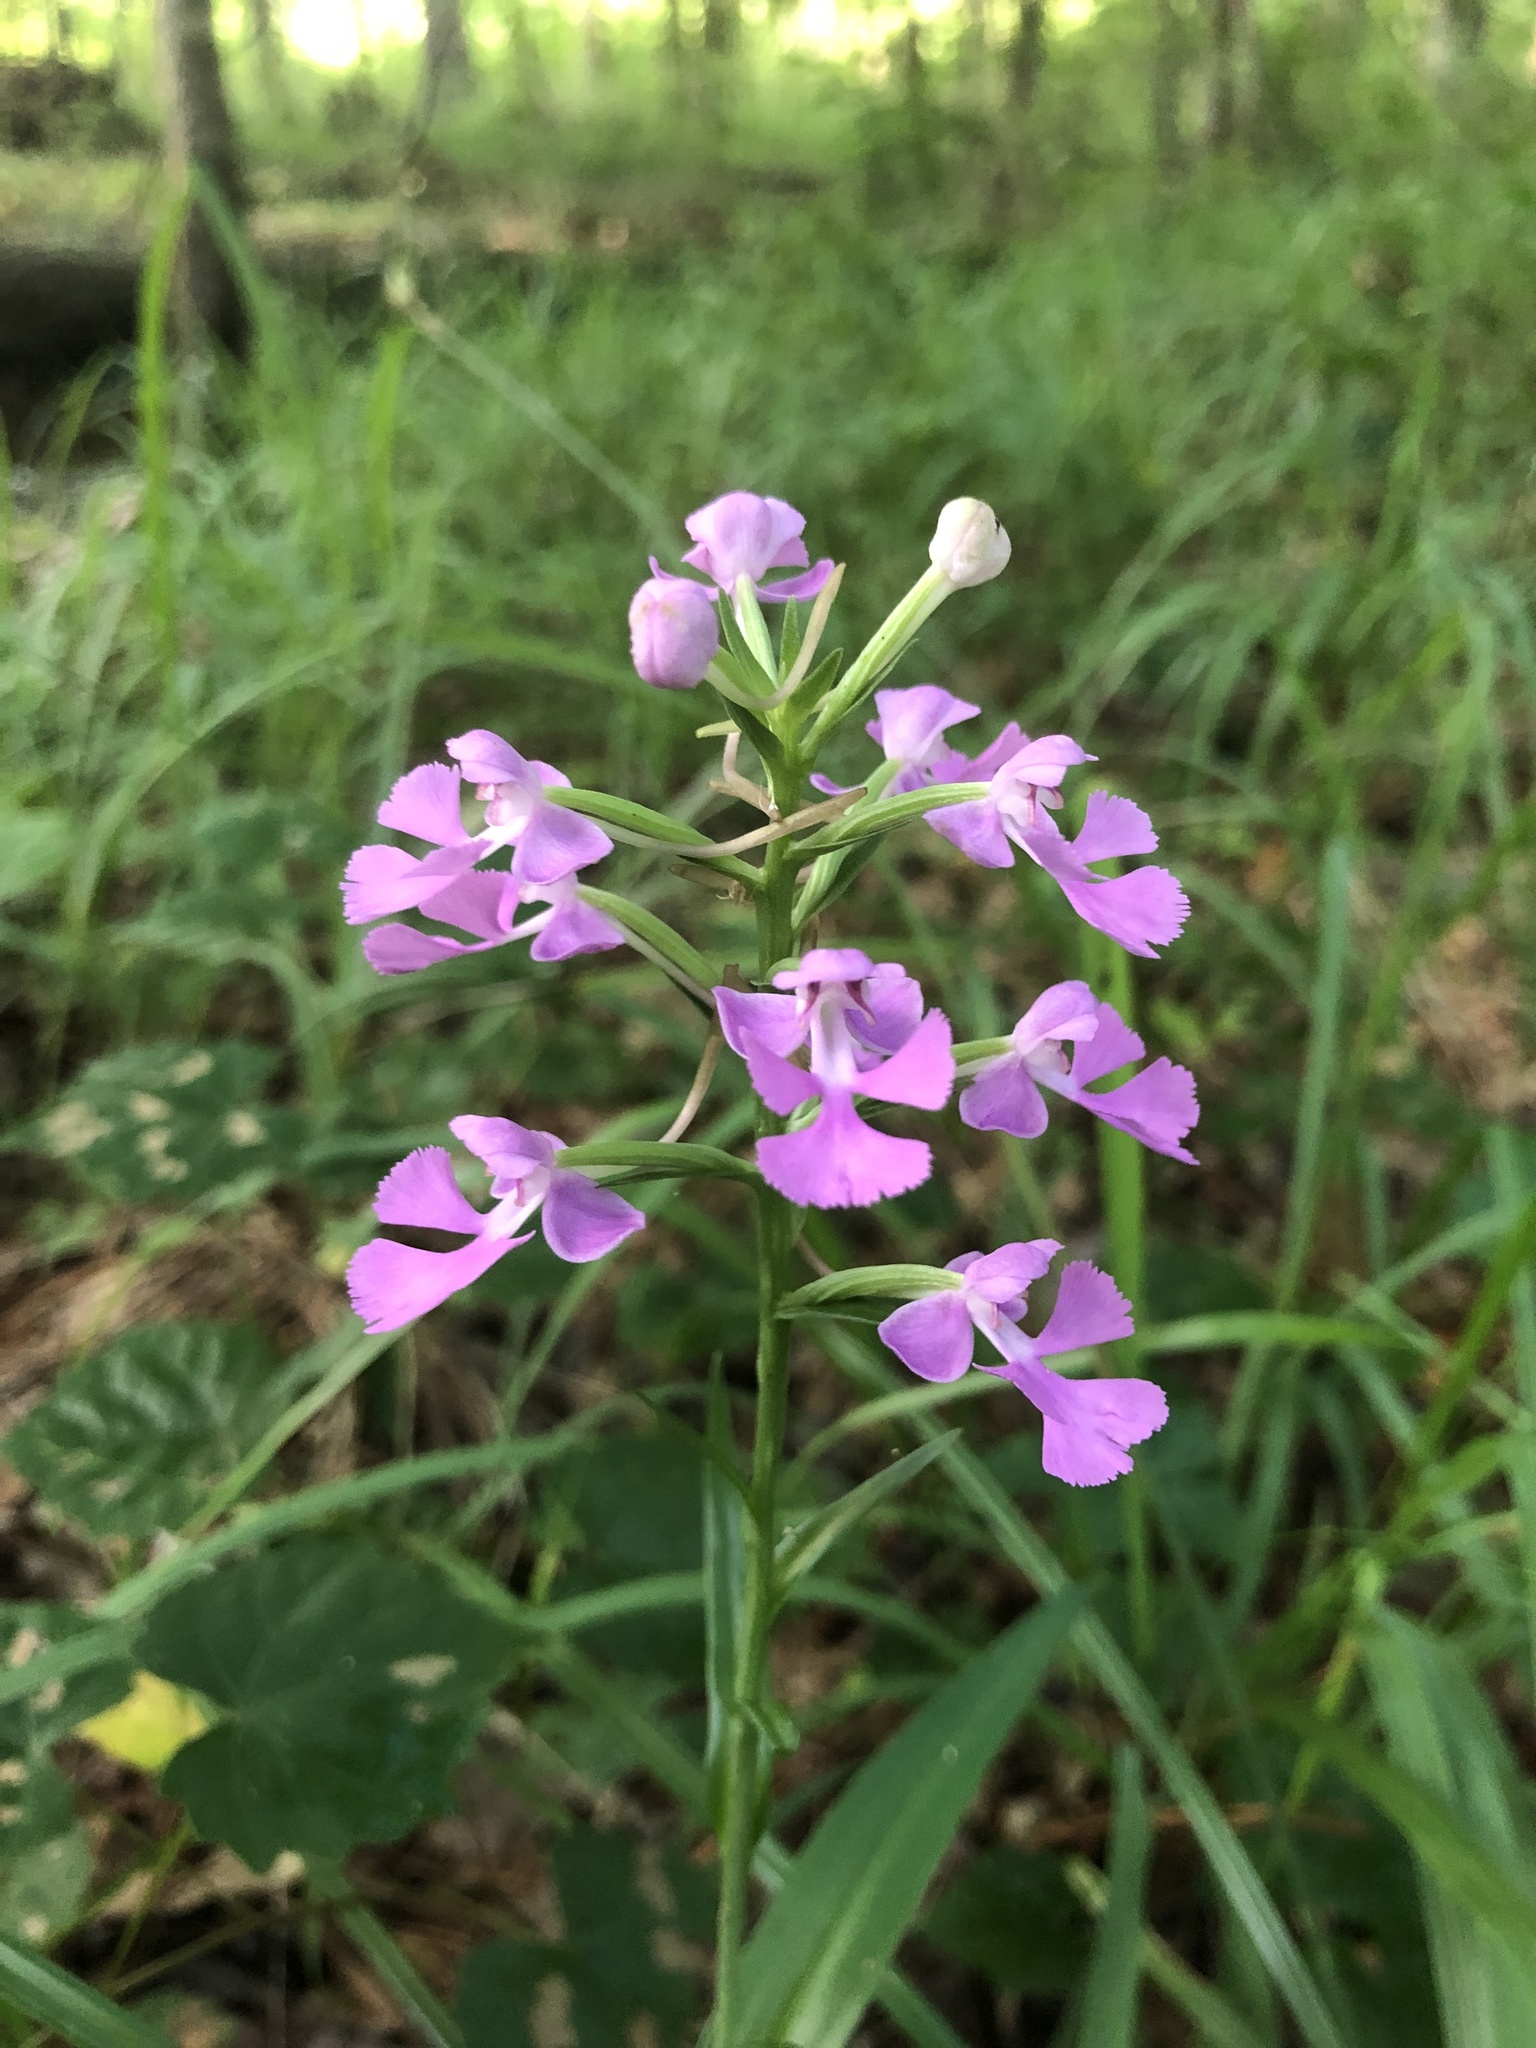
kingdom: Plantae
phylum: Tracheophyta
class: Liliopsida
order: Asparagales
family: Orchidaceae
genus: Platanthera
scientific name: Platanthera peramoena
